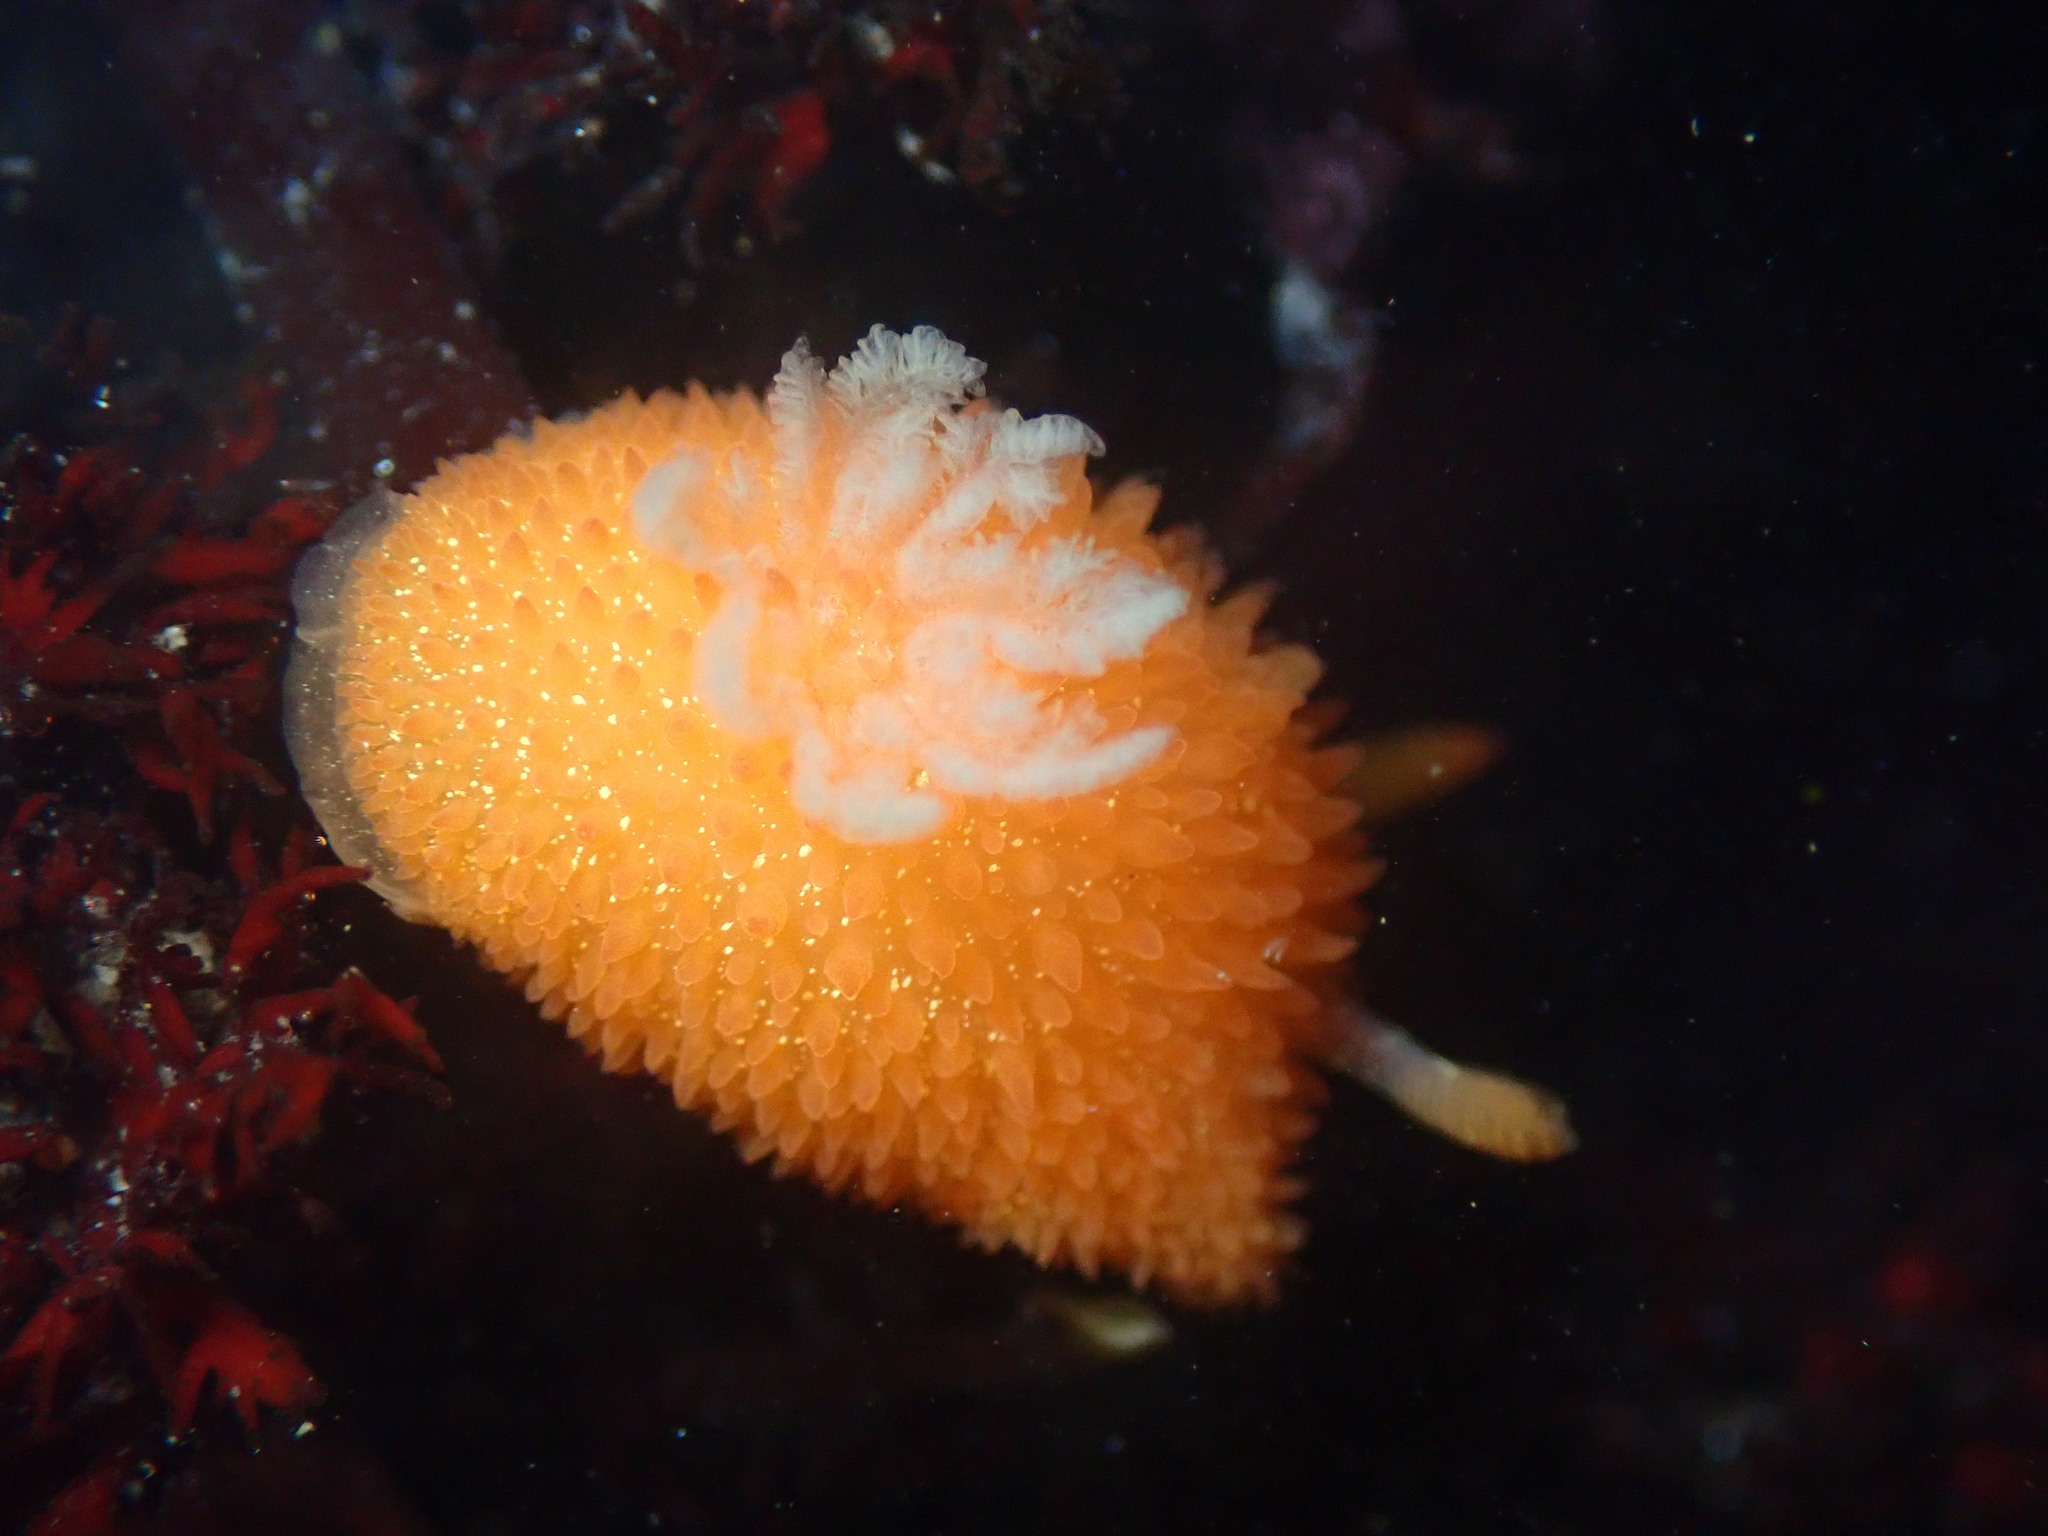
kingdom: Animalia
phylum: Mollusca
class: Gastropoda
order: Nudibranchia
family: Onchidorididae
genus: Acanthodoris
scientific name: Acanthodoris lutea
